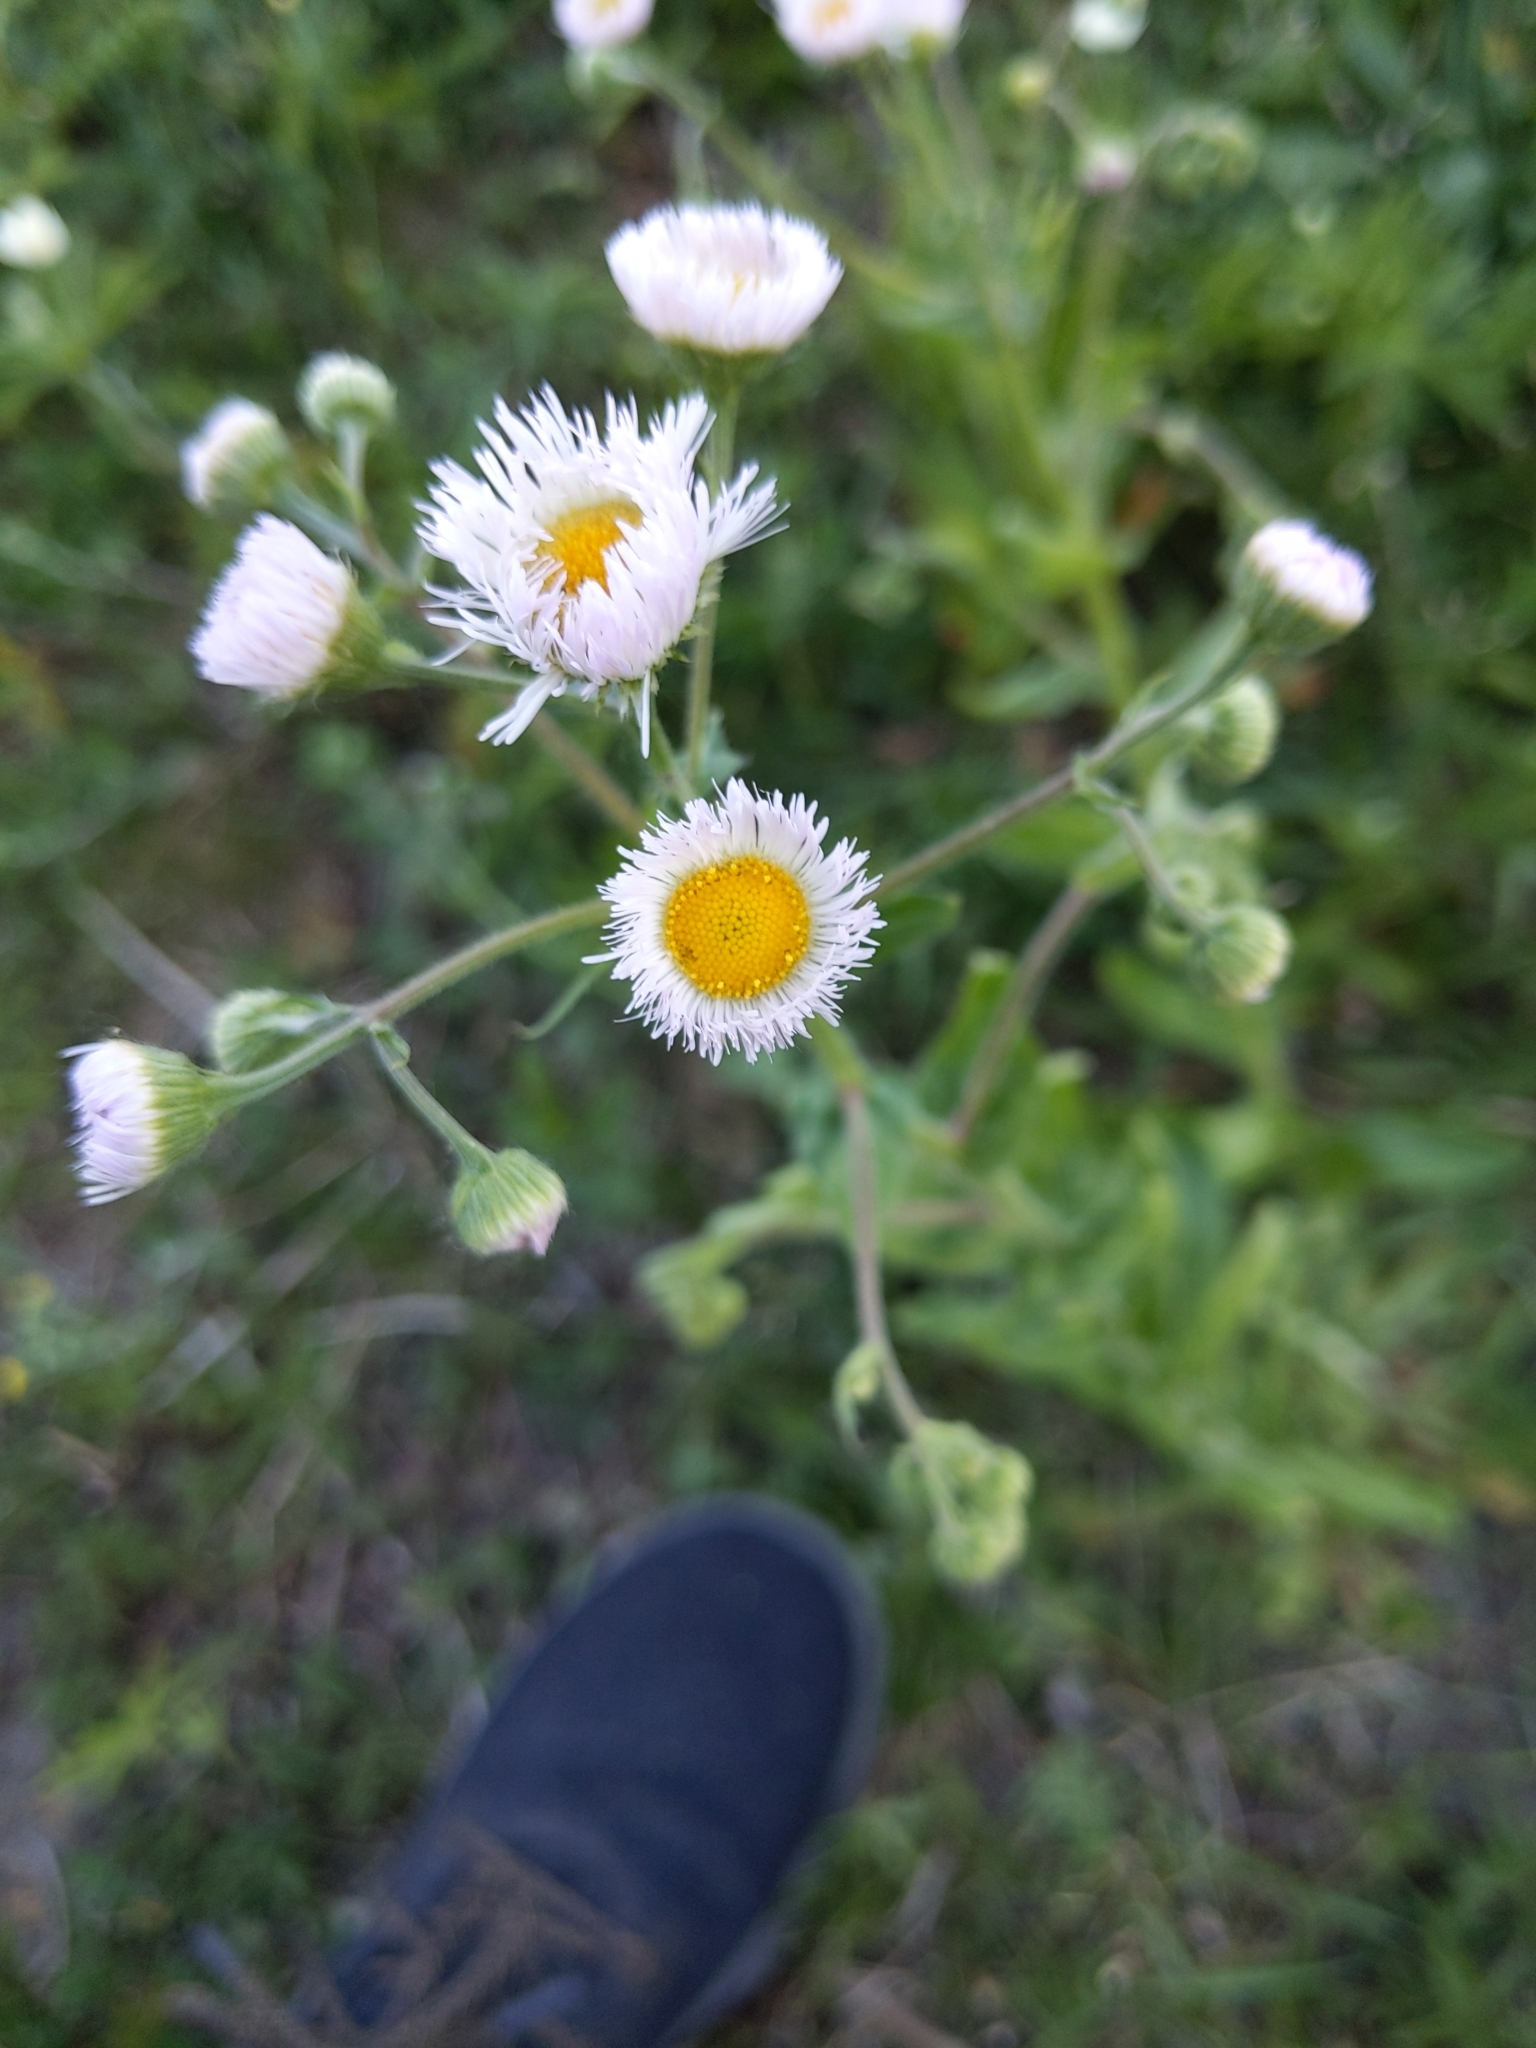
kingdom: Plantae
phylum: Tracheophyta
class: Magnoliopsida
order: Asterales
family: Asteraceae
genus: Erigeron
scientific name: Erigeron philadelphicus
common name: Robin's-plantain
